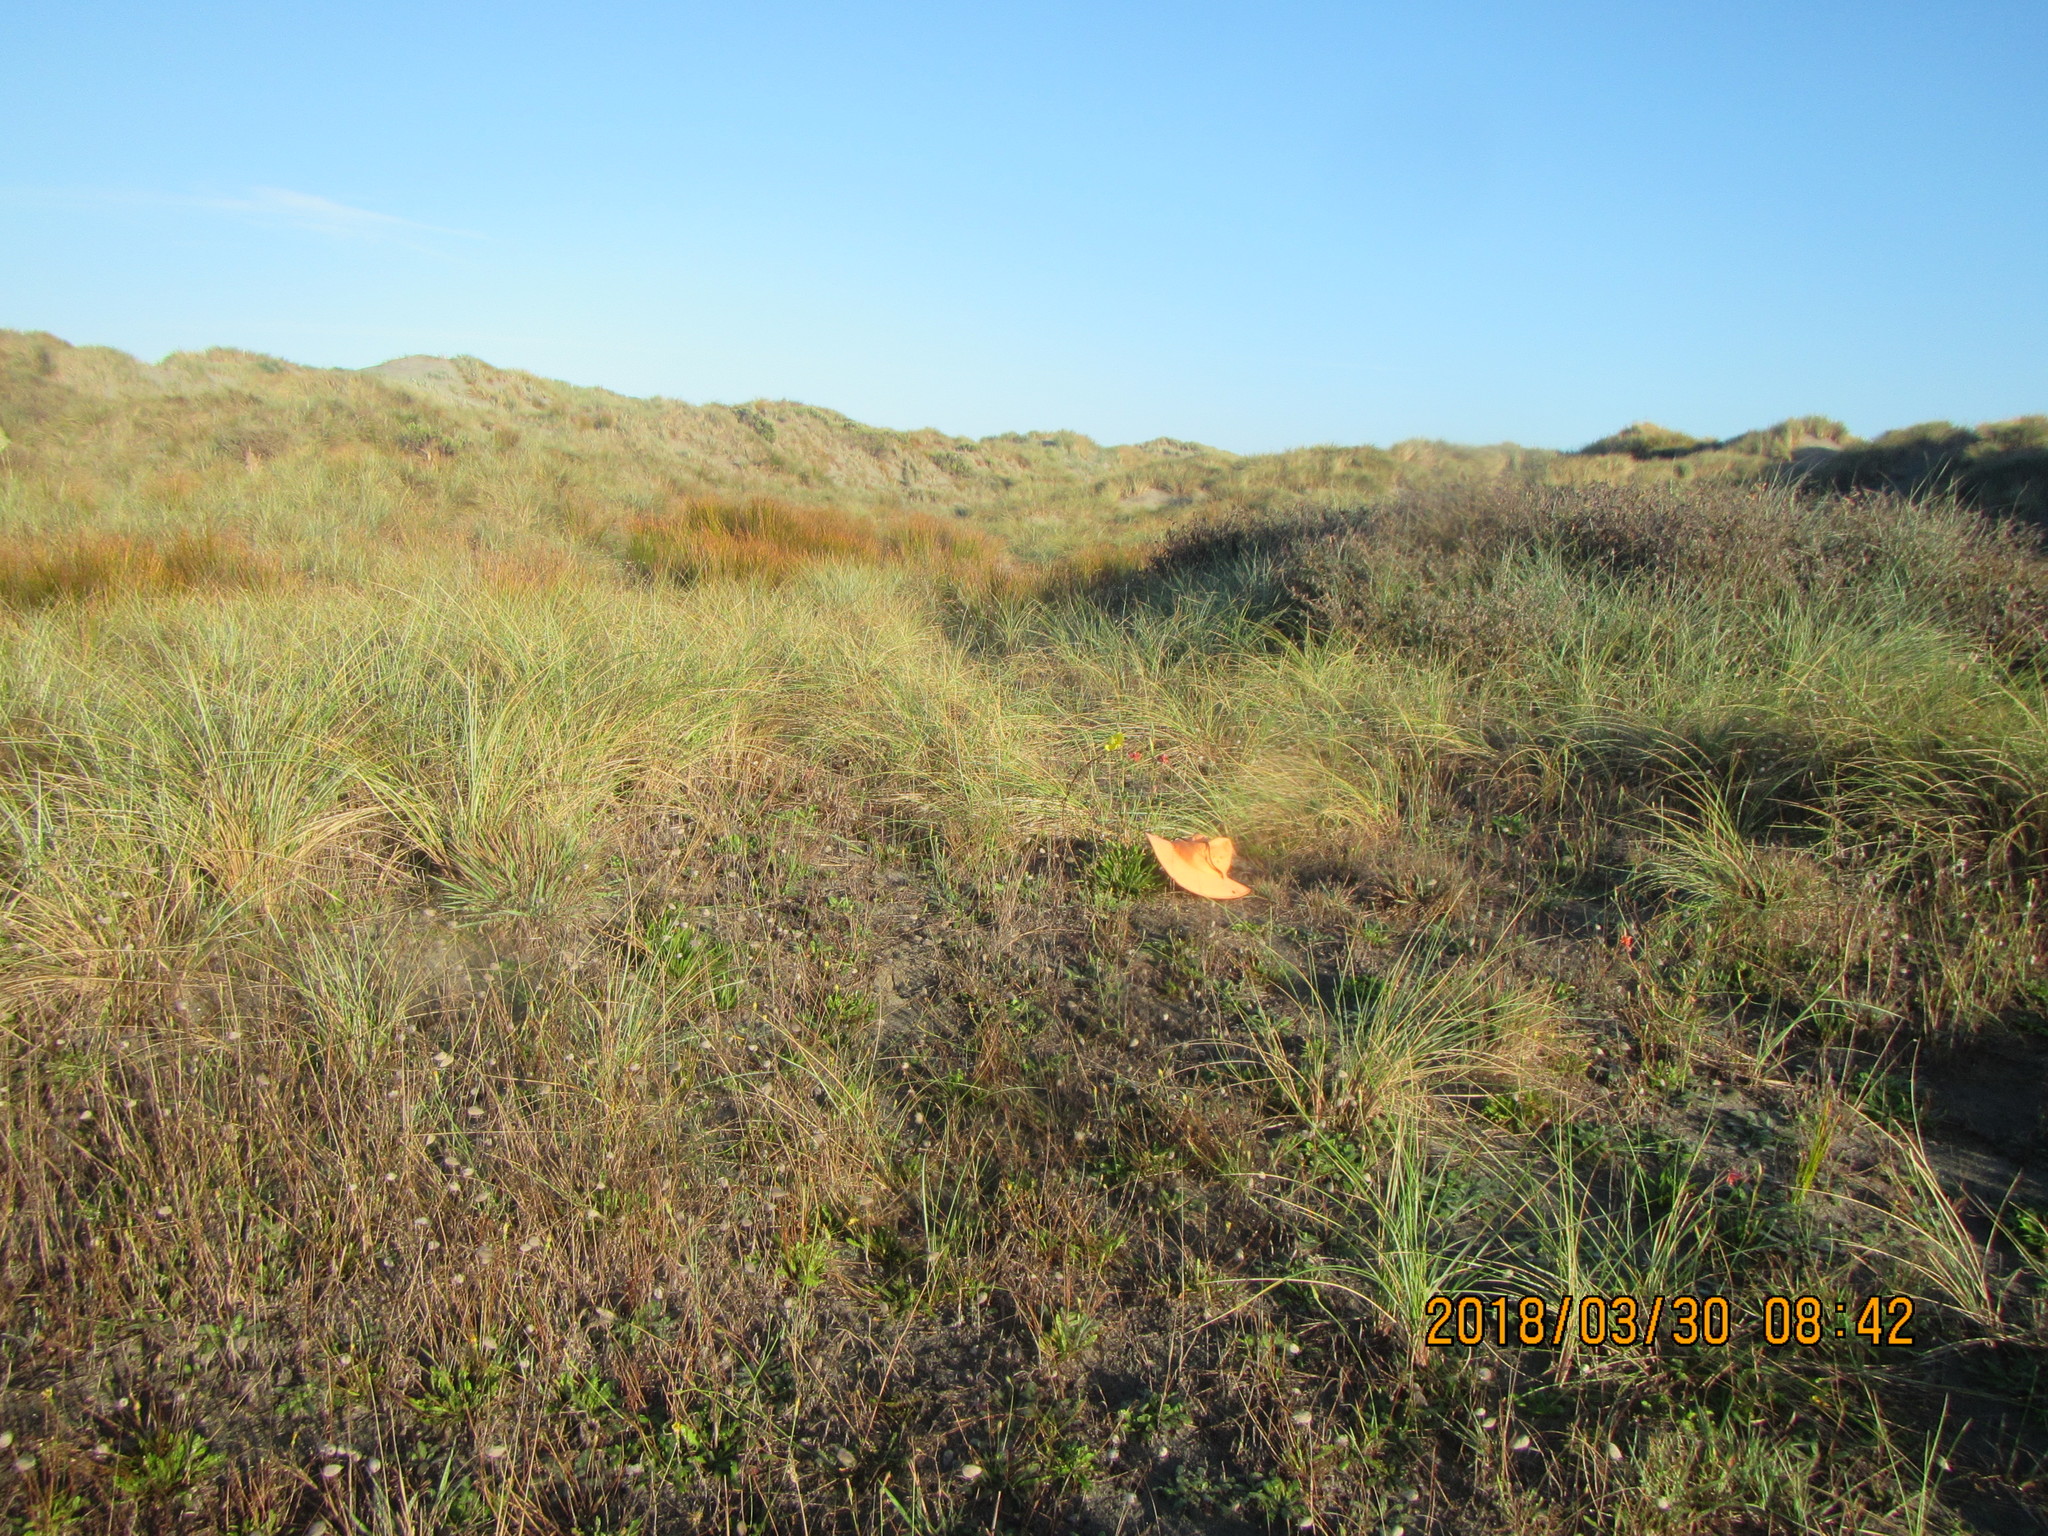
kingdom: Plantae
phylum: Tracheophyta
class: Liliopsida
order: Poales
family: Poaceae
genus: Lachnagrostis
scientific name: Lachnagrostis billardierei
